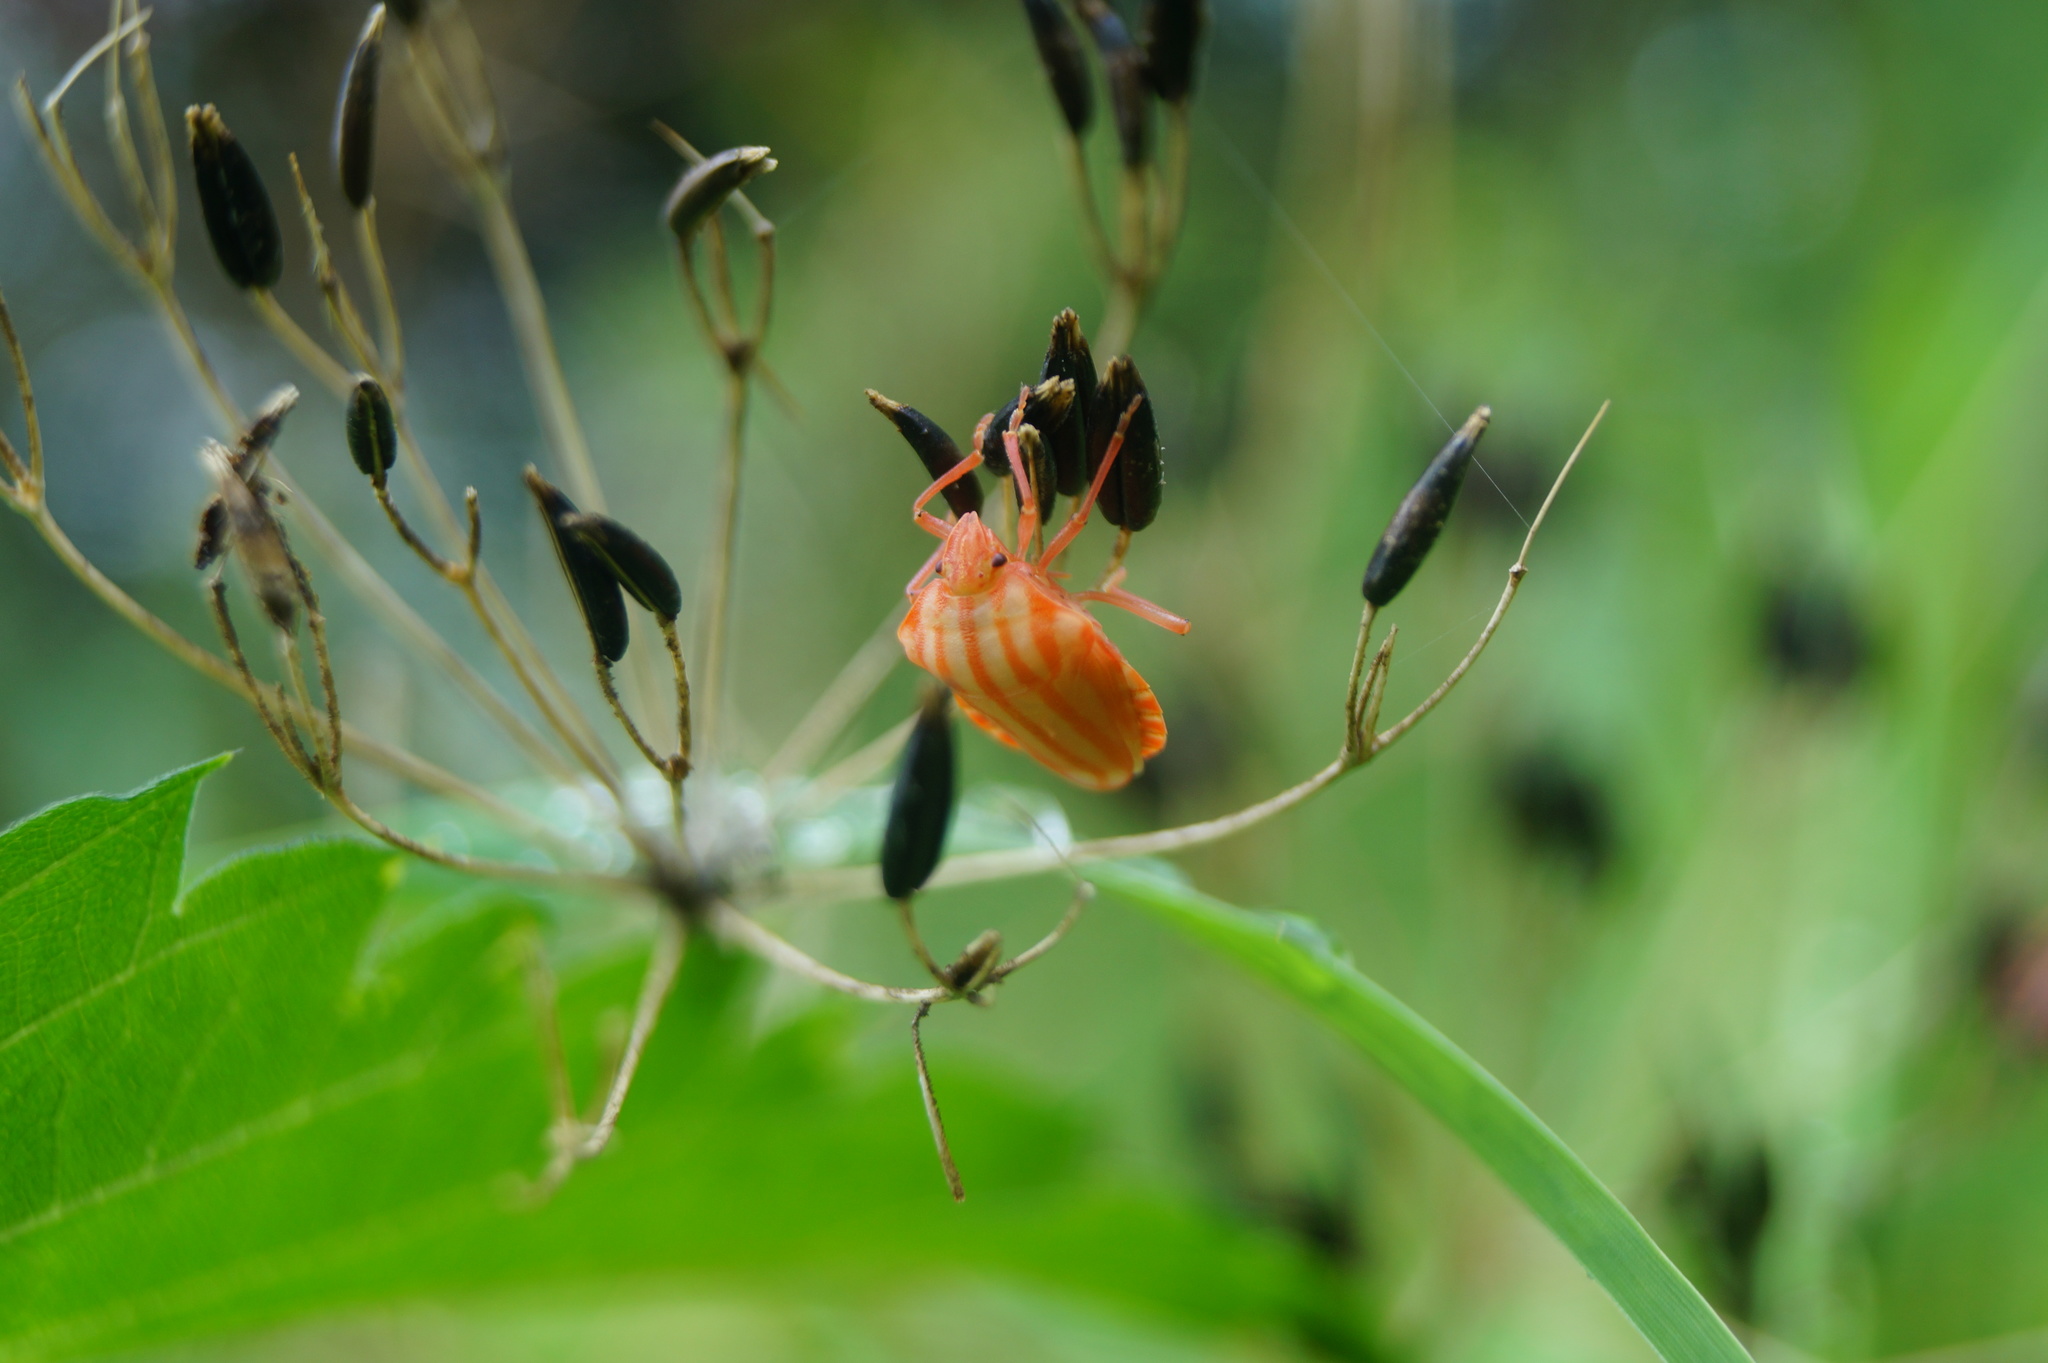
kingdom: Animalia
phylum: Arthropoda
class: Insecta
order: Hemiptera
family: Pentatomidae
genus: Graphosoma
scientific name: Graphosoma italicum
